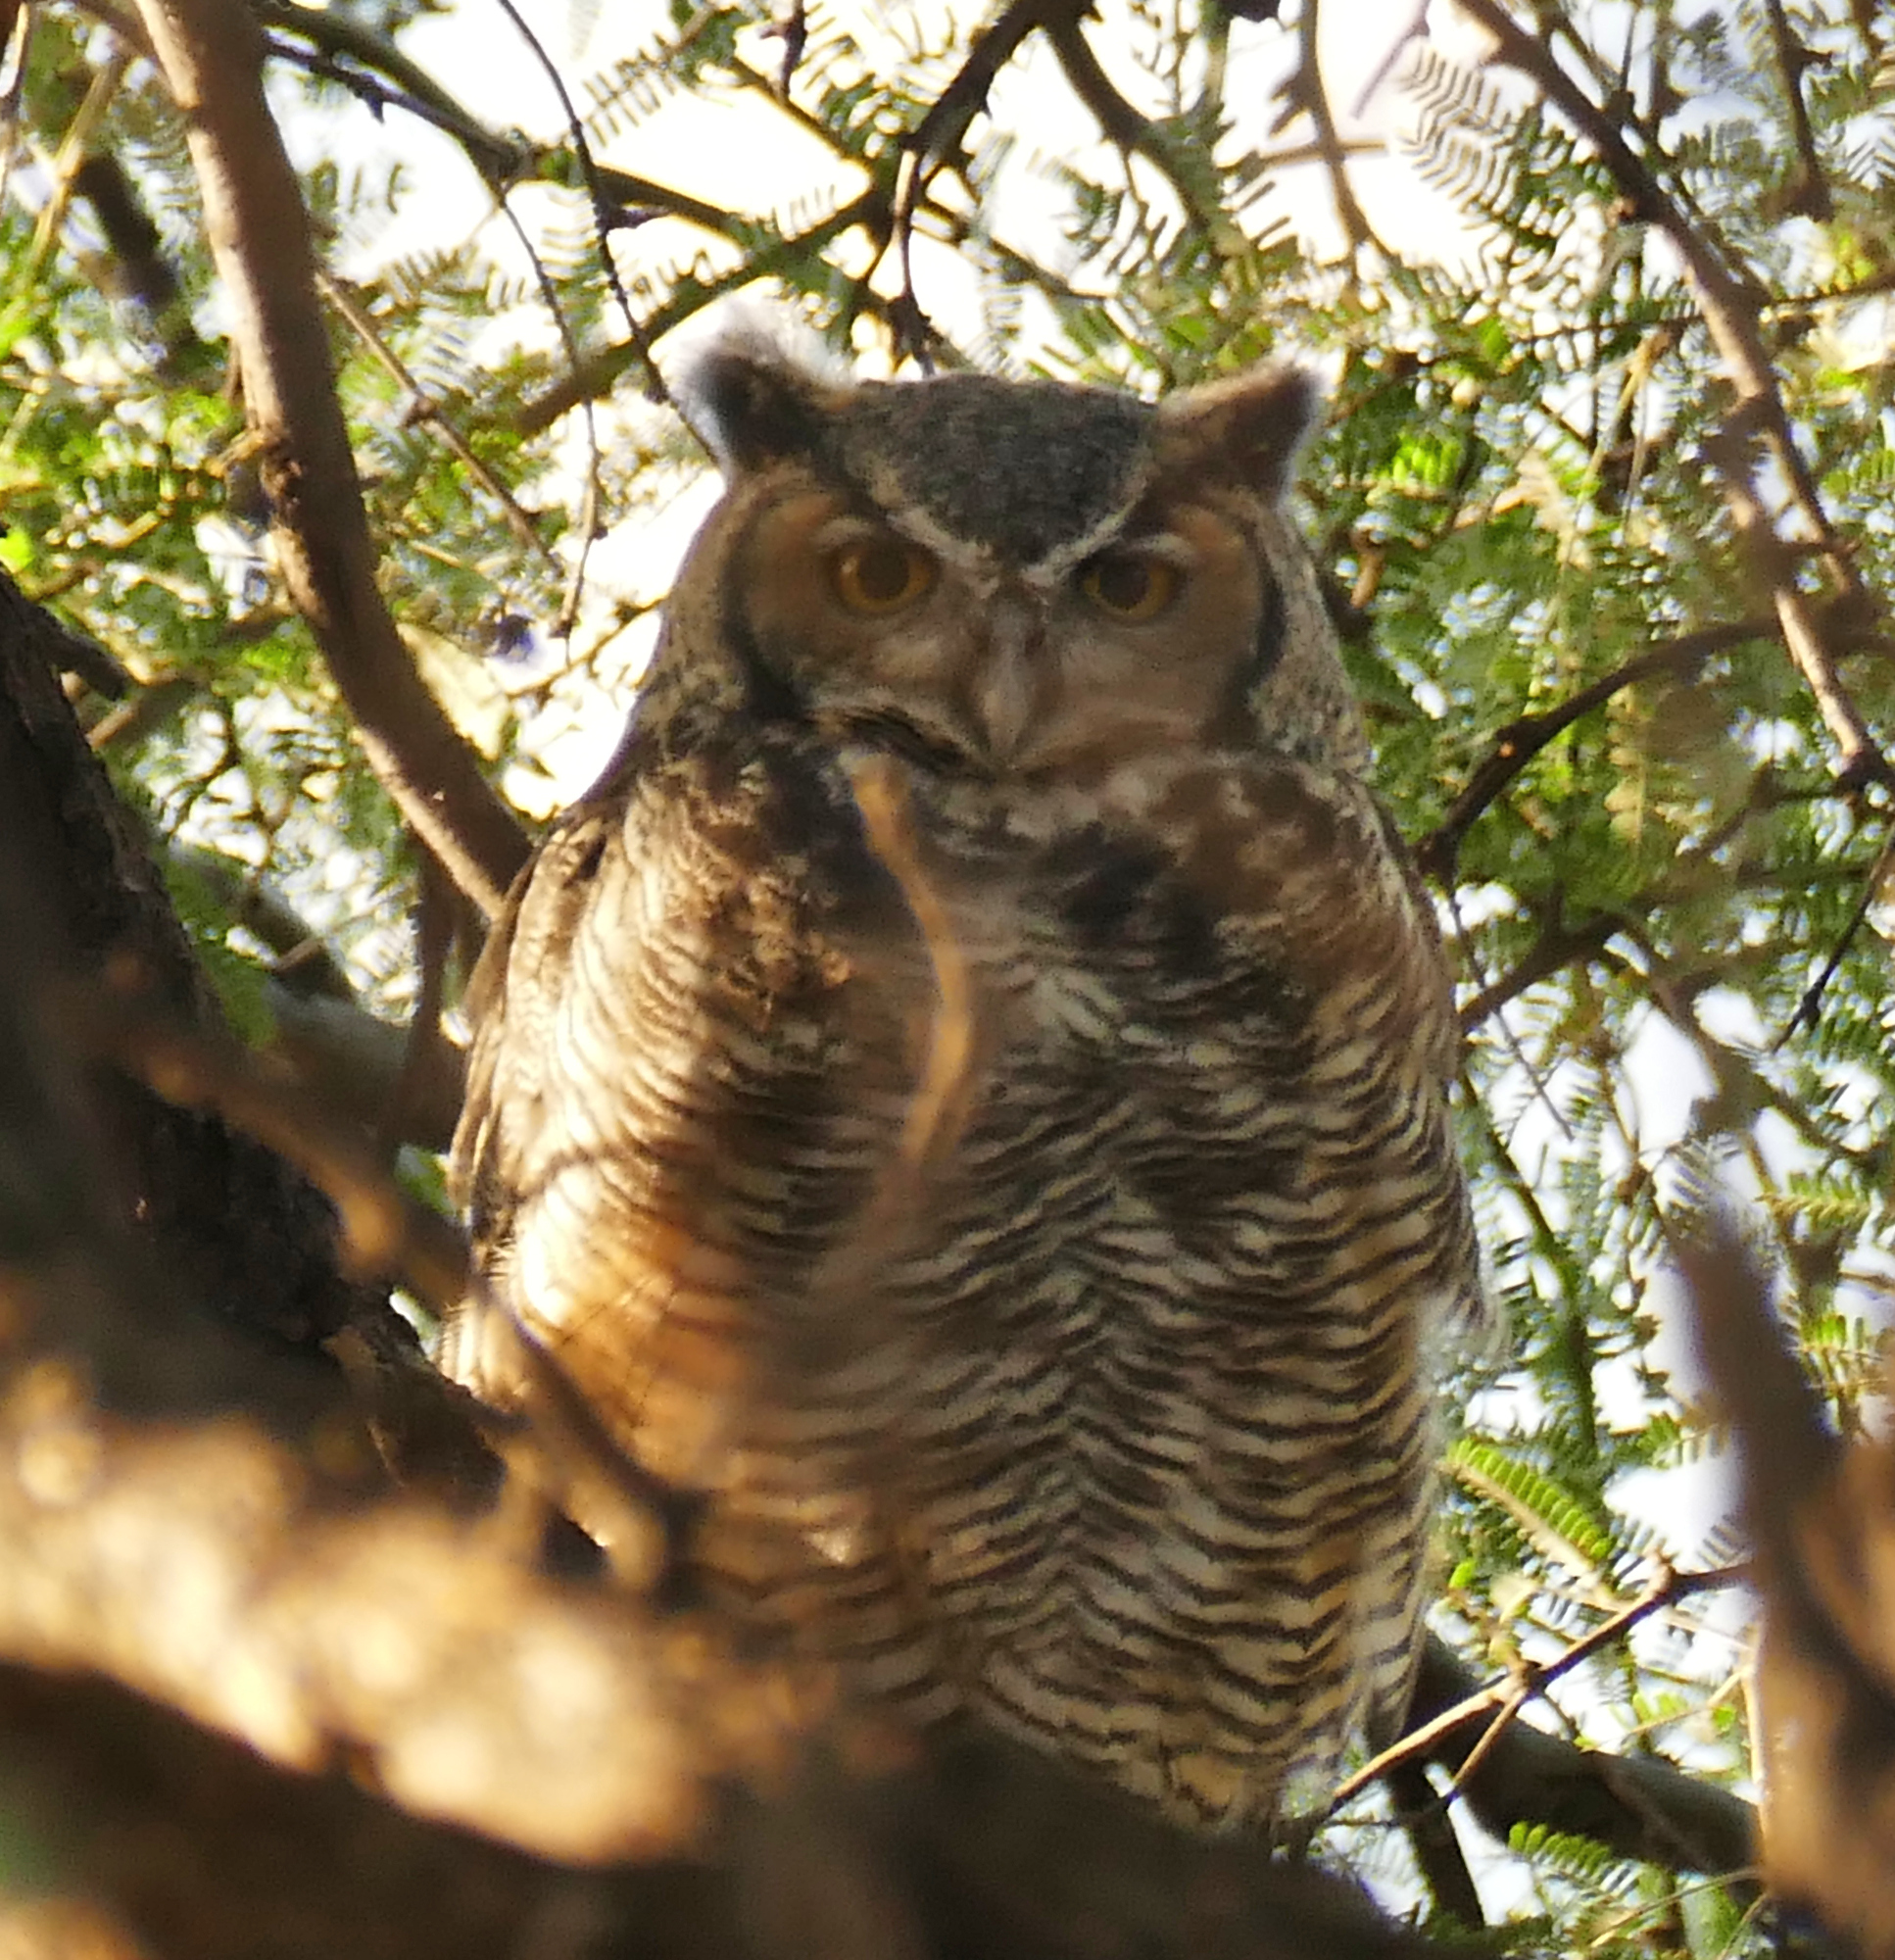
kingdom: Animalia
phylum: Chordata
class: Aves
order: Strigiformes
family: Strigidae
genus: Bubo
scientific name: Bubo virginianus
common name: Great horned owl
